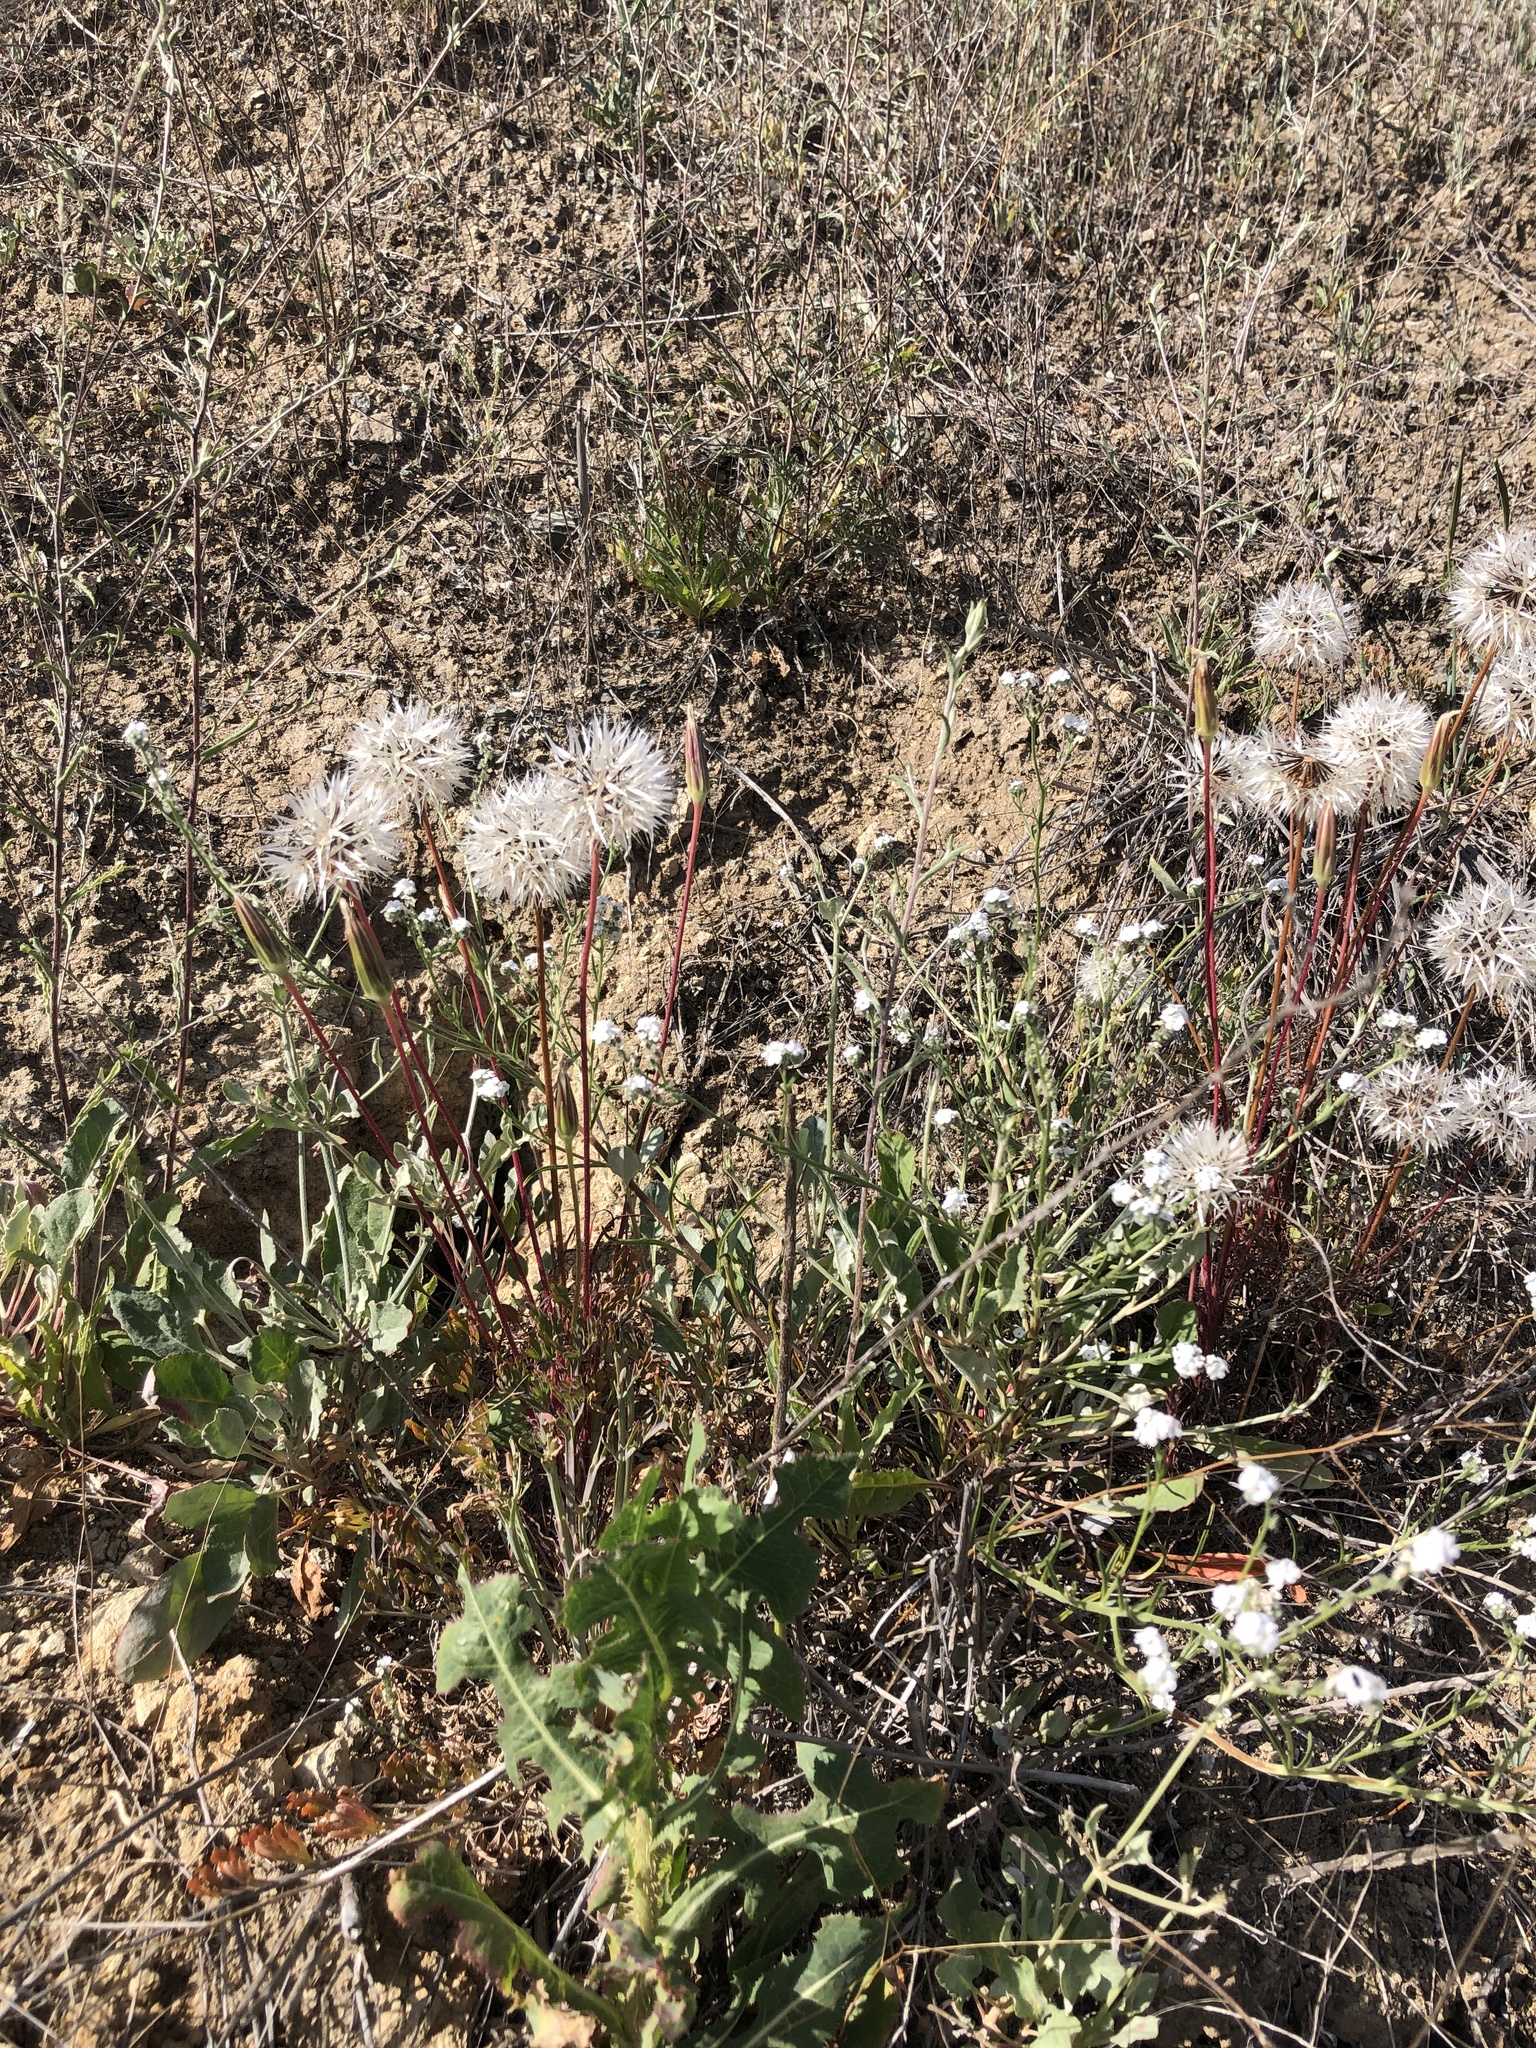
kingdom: Plantae
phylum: Tracheophyta
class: Magnoliopsida
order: Asterales
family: Asteraceae
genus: Microseris
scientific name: Microseris lindleyi
